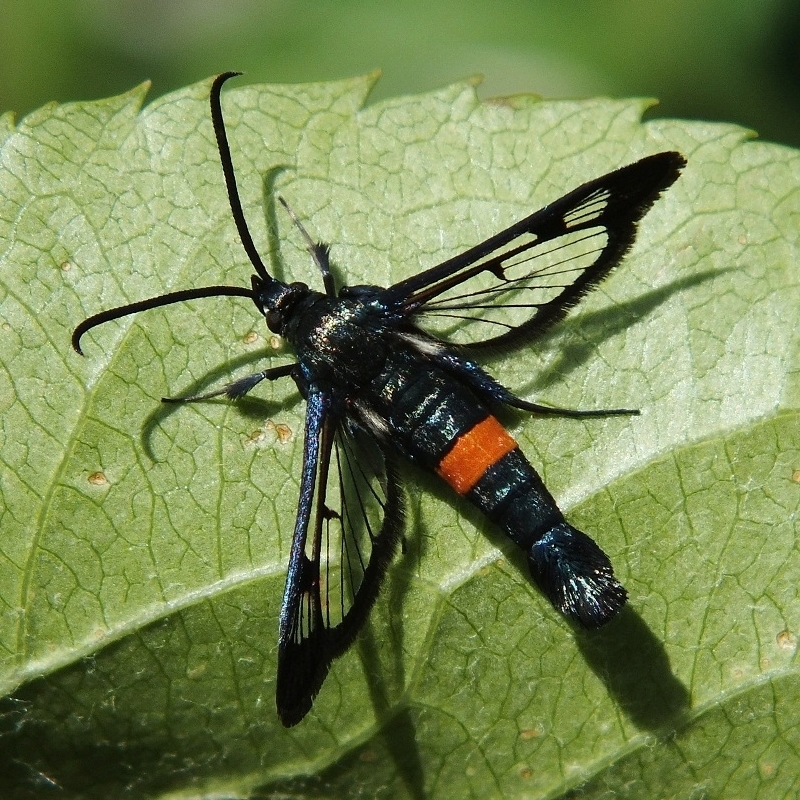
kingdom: Animalia
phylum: Arthropoda
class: Insecta
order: Lepidoptera
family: Sesiidae
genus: Synanthedon
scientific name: Synanthedon myopaeformis
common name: Red-belted clearwing
